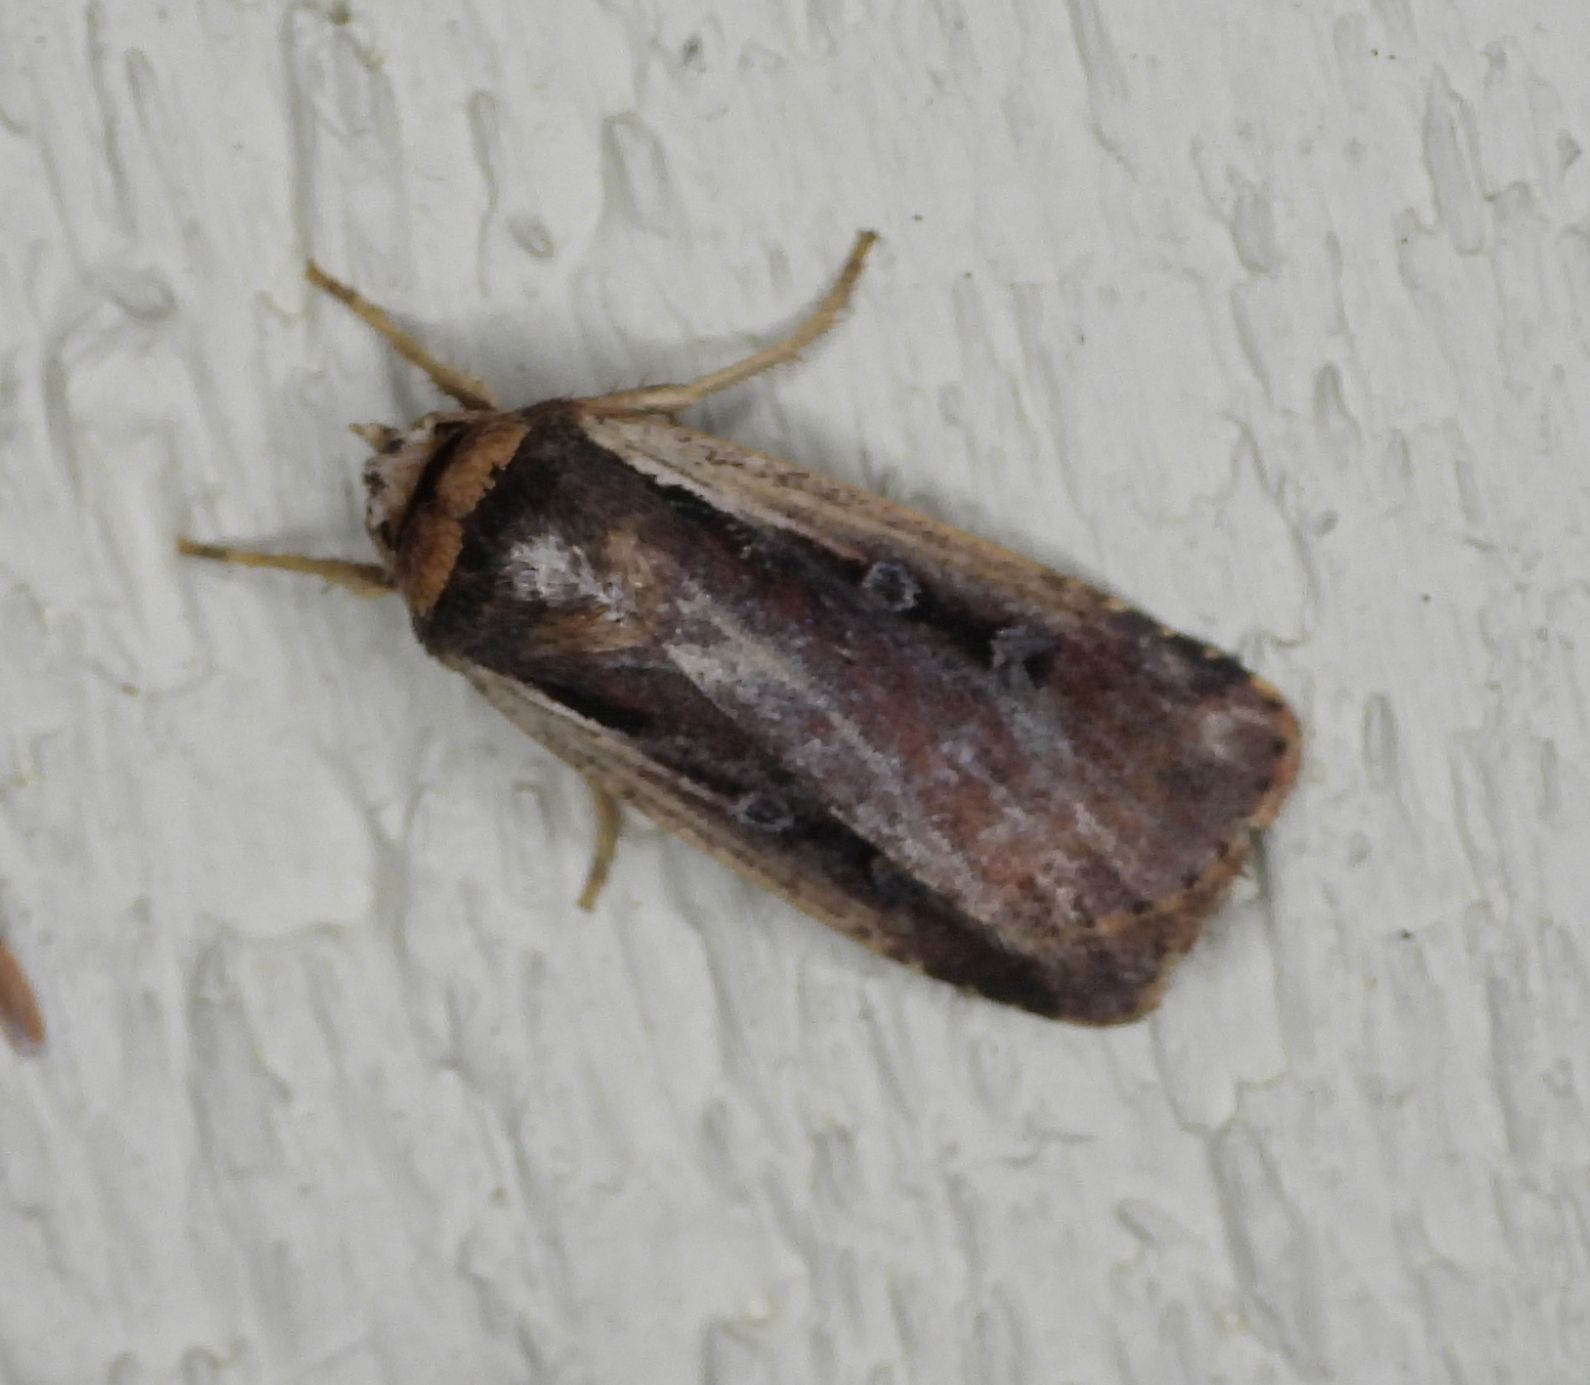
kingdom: Animalia
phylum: Arthropoda
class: Insecta
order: Lepidoptera
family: Noctuidae
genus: Ochropleura
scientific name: Ochropleura implecta
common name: Flame-shouldered dart
